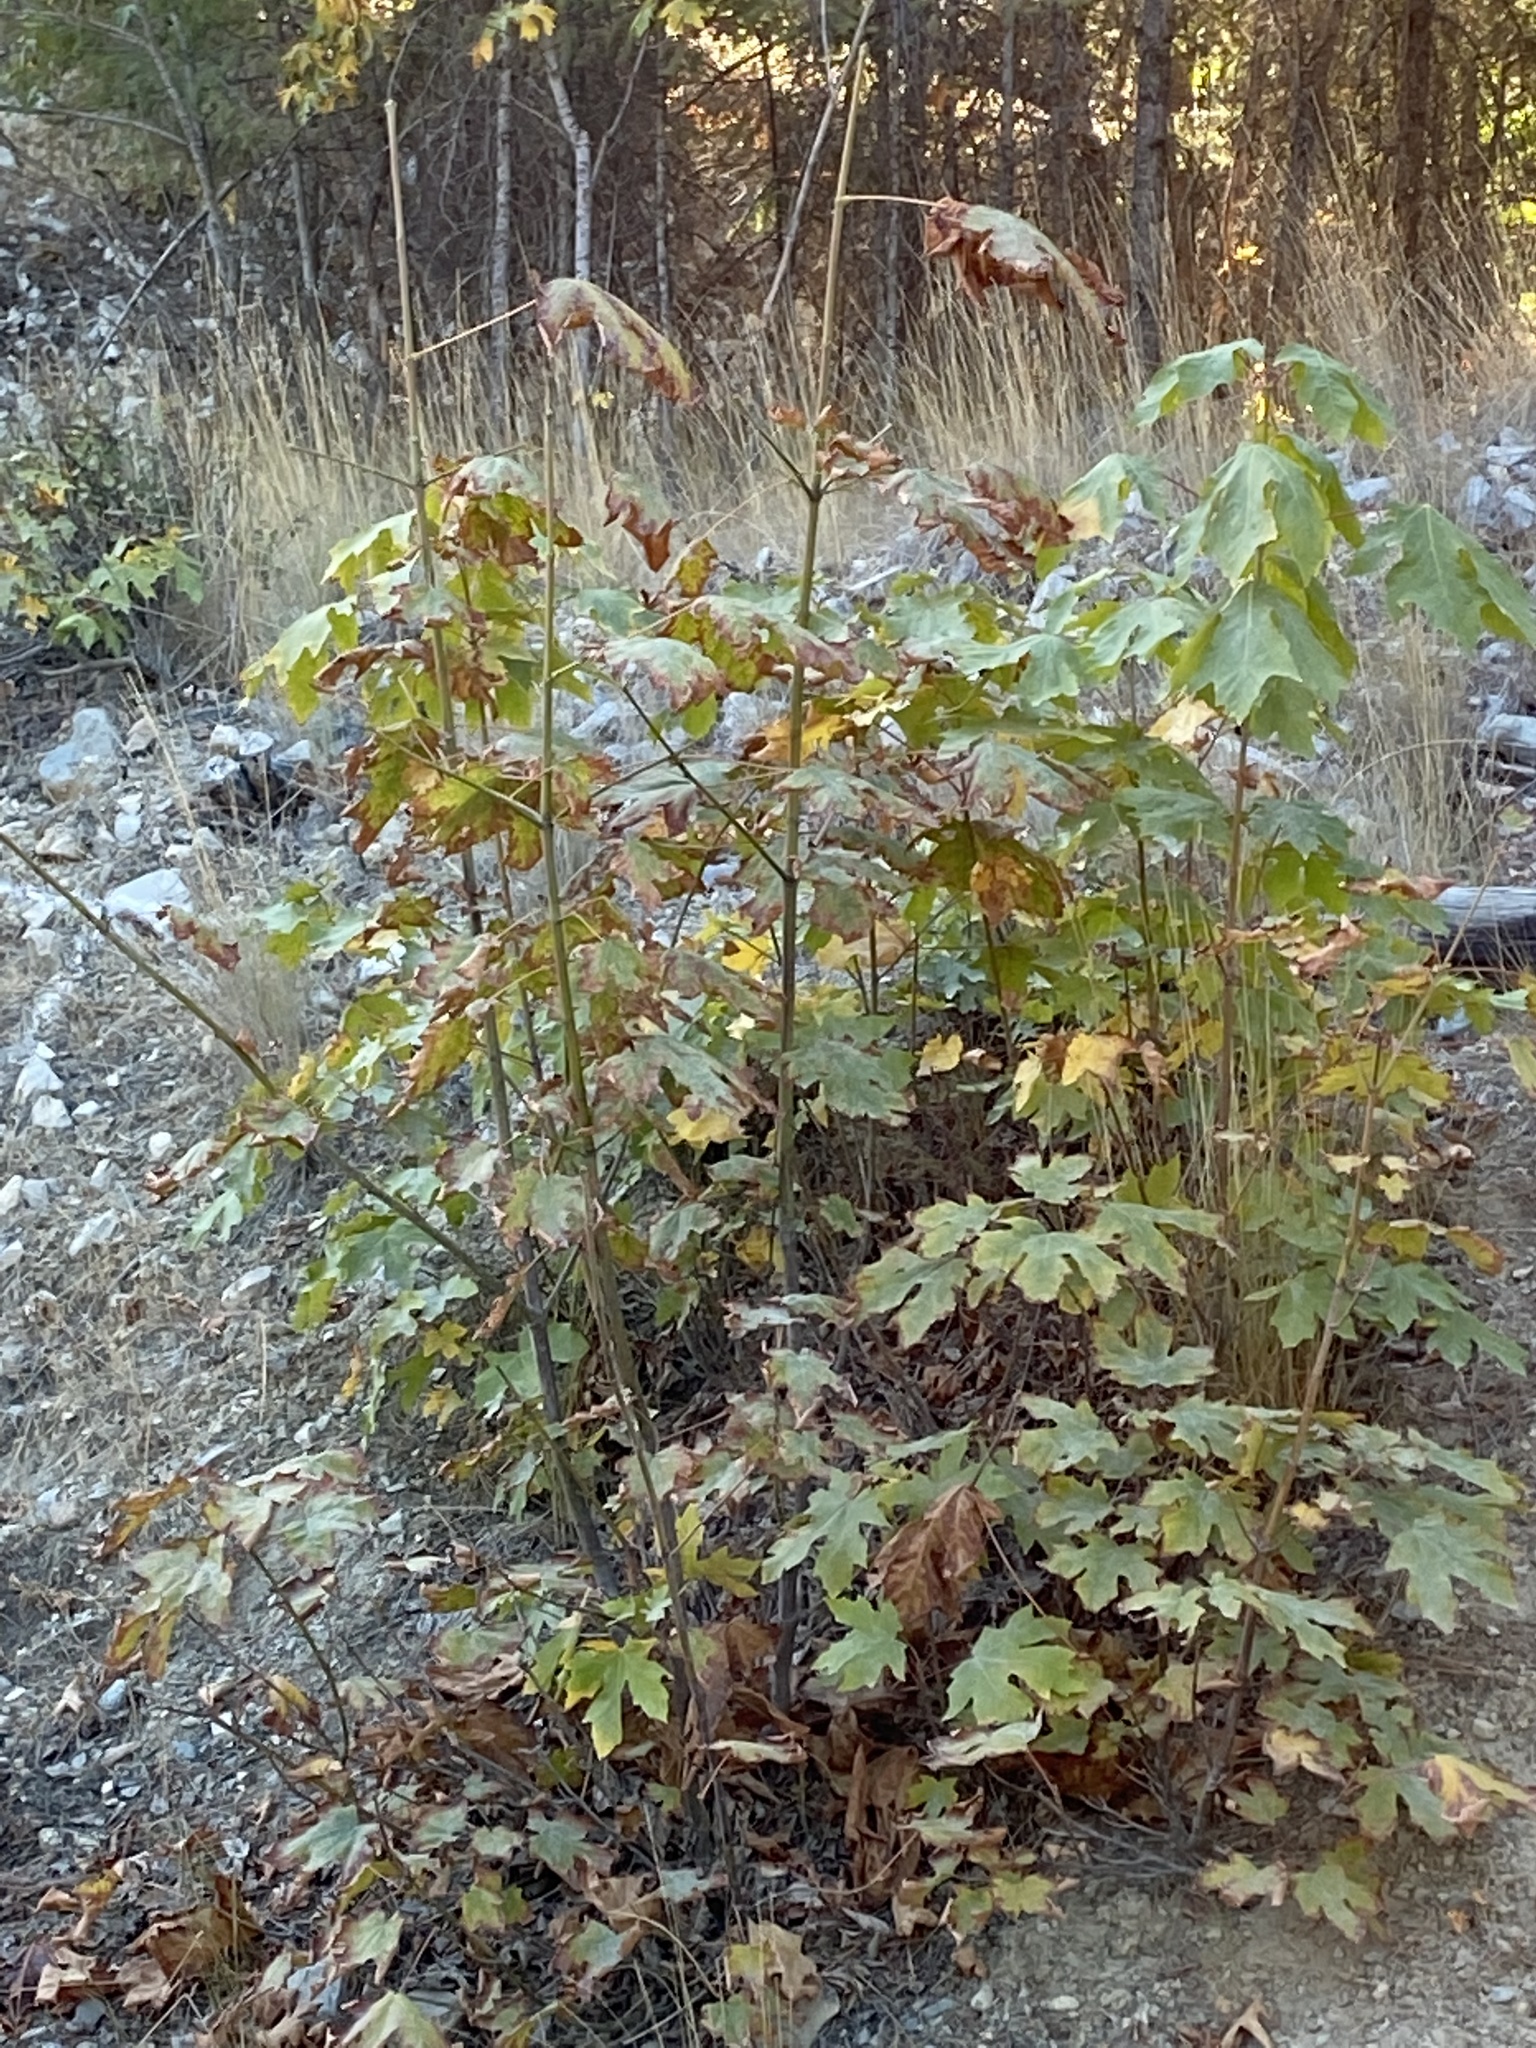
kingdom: Plantae
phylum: Tracheophyta
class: Magnoliopsida
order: Sapindales
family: Sapindaceae
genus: Acer
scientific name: Acer macrophyllum
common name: Oregon maple
